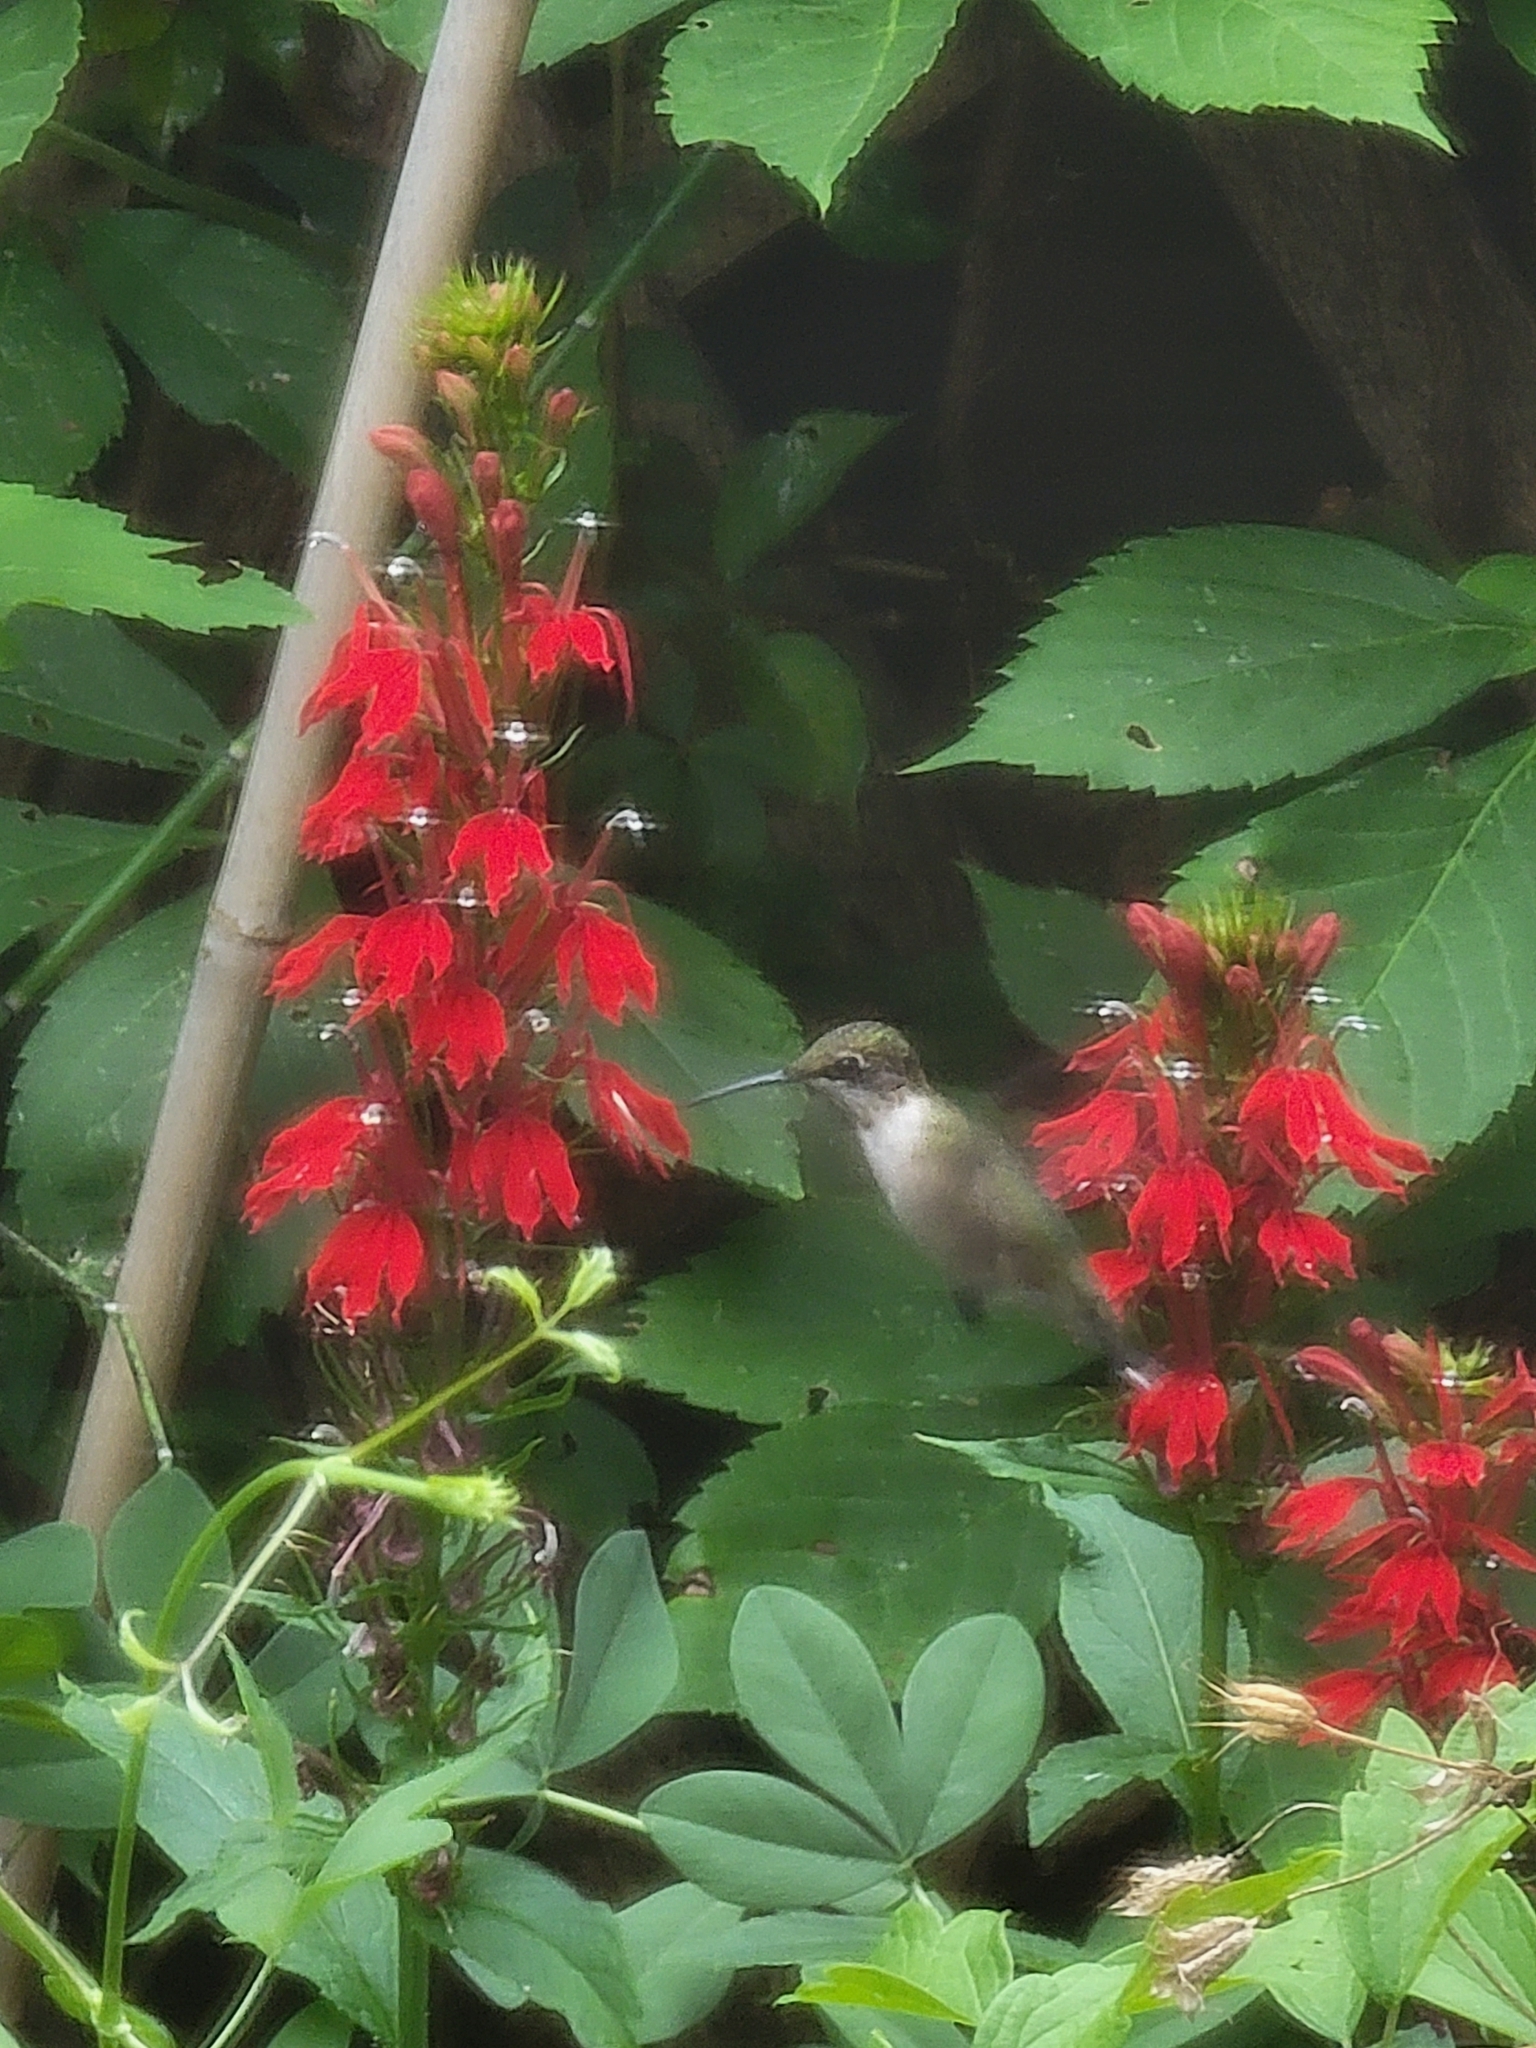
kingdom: Animalia
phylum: Chordata
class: Aves
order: Apodiformes
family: Trochilidae
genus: Archilochus
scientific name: Archilochus colubris
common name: Ruby-throated hummingbird
